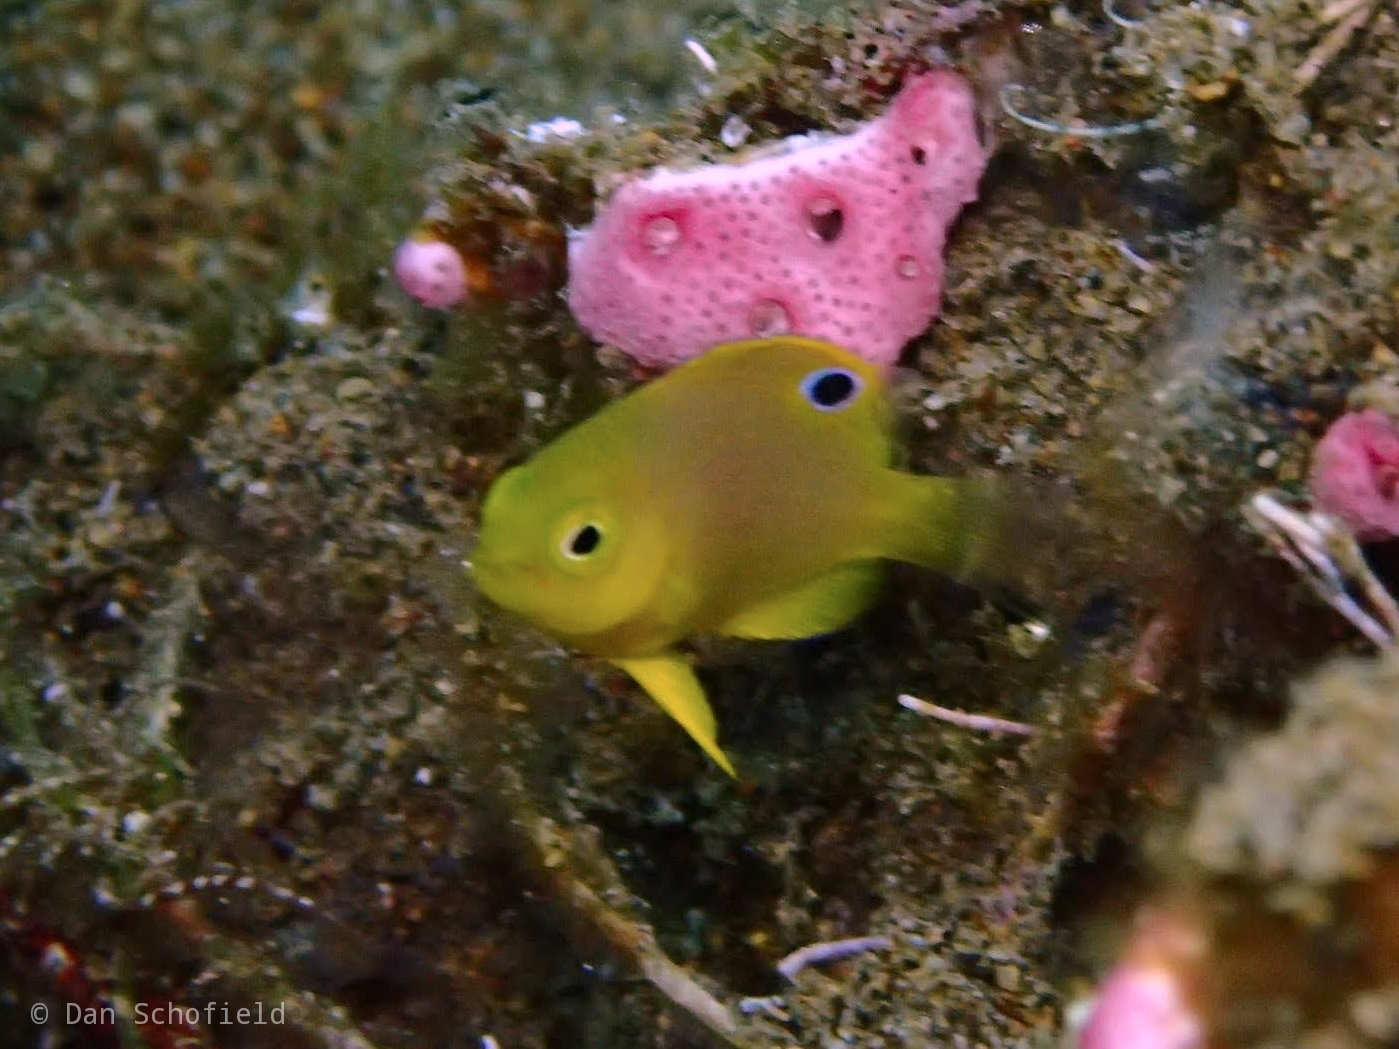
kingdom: Animalia
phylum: Chordata
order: Perciformes
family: Pomacentridae
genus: Pomacentrus
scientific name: Pomacentrus amboinensis
